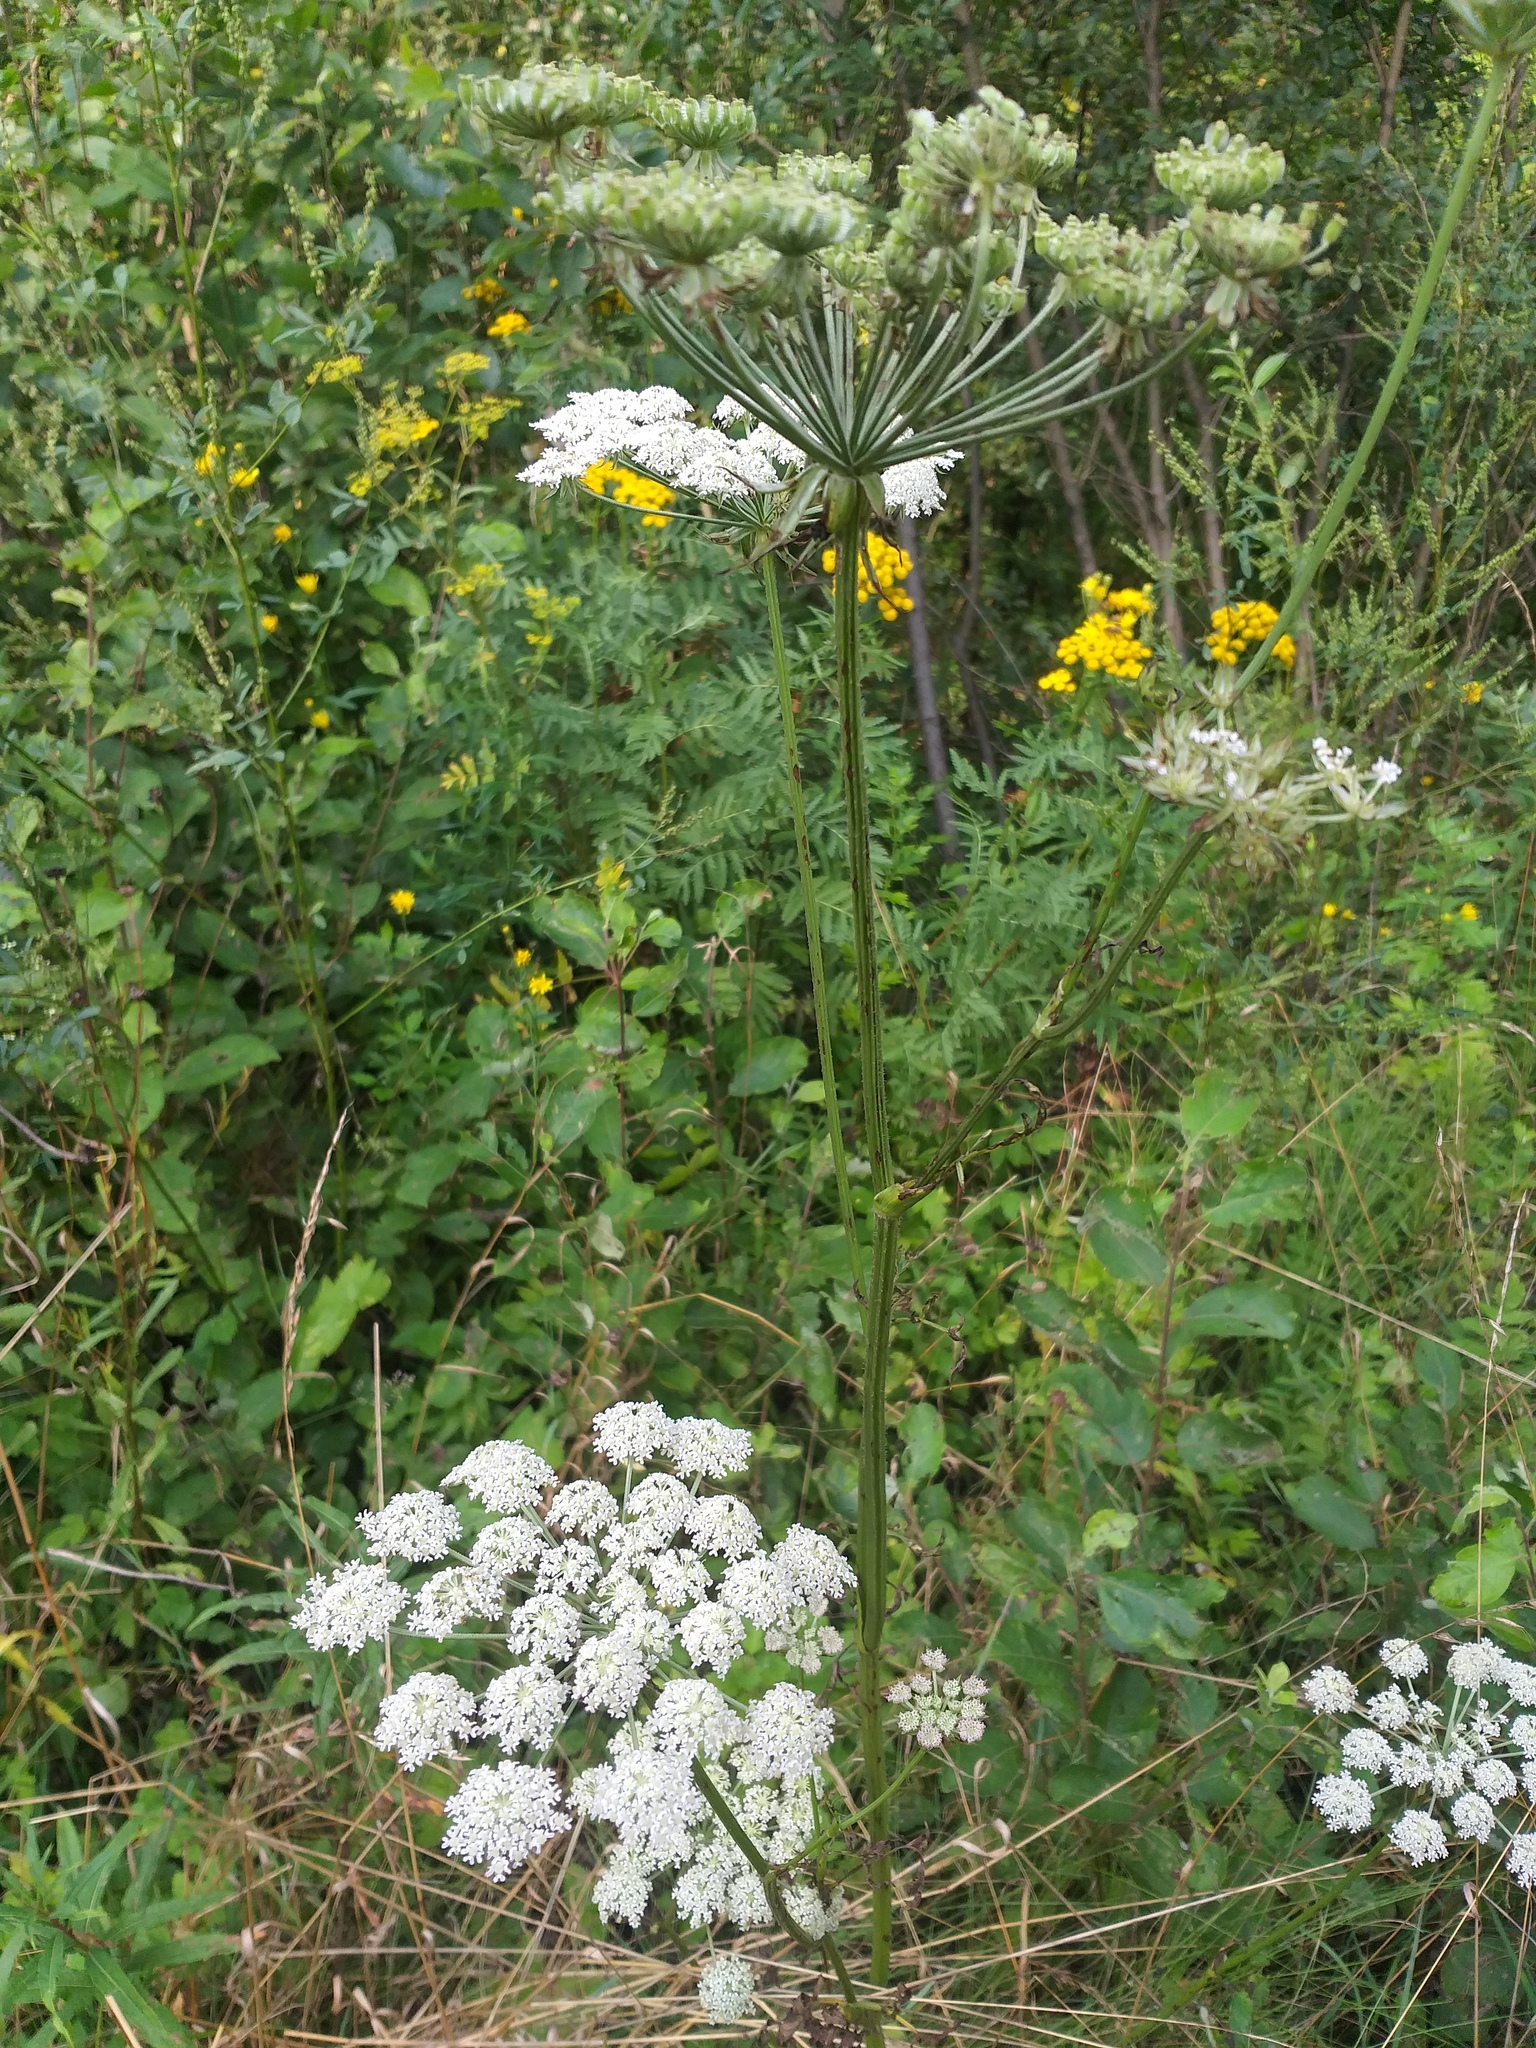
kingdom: Plantae
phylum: Tracheophyta
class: Magnoliopsida
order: Apiales
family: Apiaceae
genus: Silphiodaucus
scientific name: Silphiodaucus prutenicus
